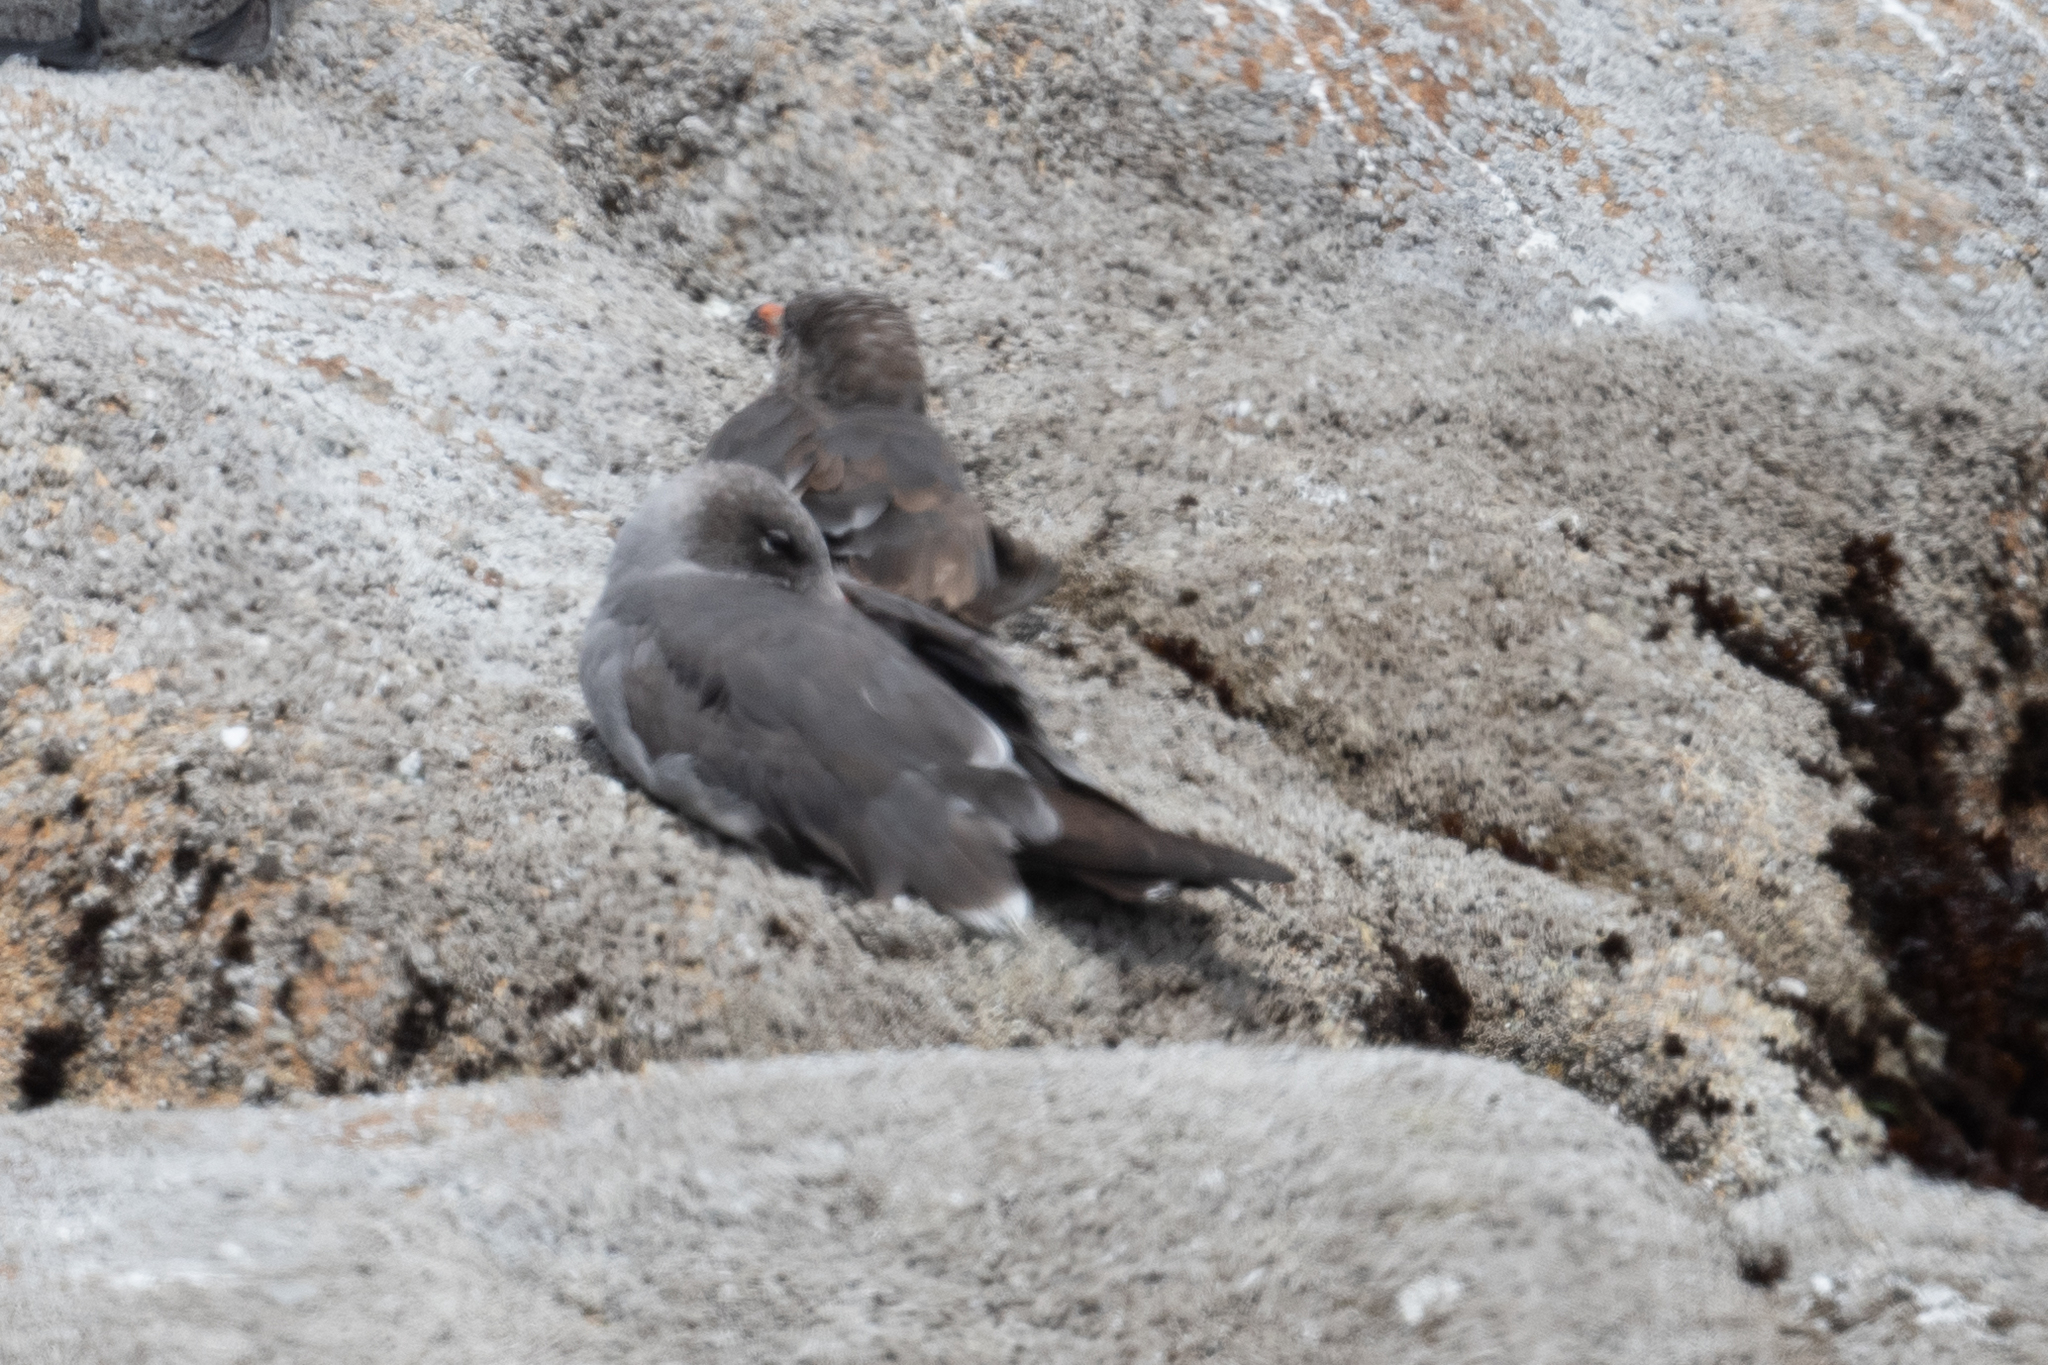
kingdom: Animalia
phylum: Chordata
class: Aves
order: Charadriiformes
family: Laridae
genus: Larus
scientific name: Larus heermanni
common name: Heermann's gull
